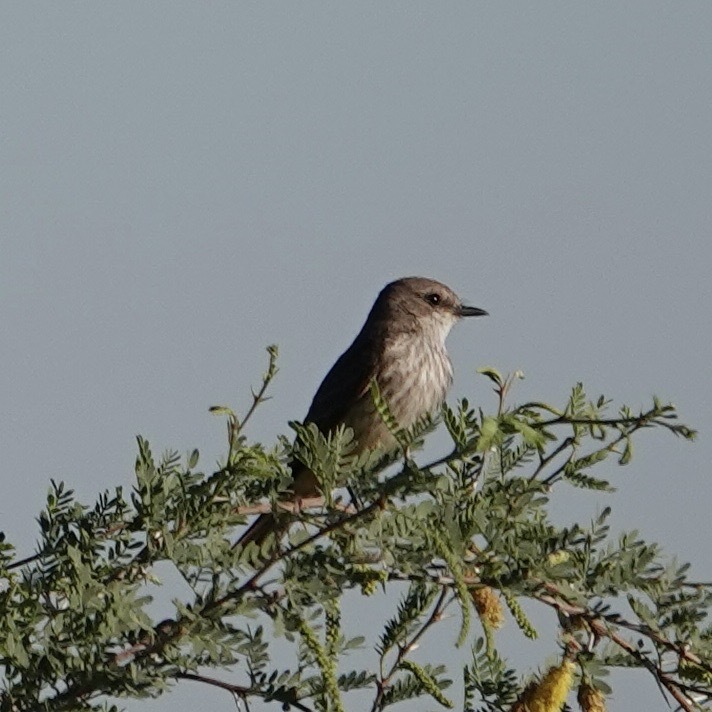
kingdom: Animalia
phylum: Chordata
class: Aves
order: Passeriformes
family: Tyrannidae
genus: Pyrocephalus
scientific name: Pyrocephalus rubinus
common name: Vermilion flycatcher
